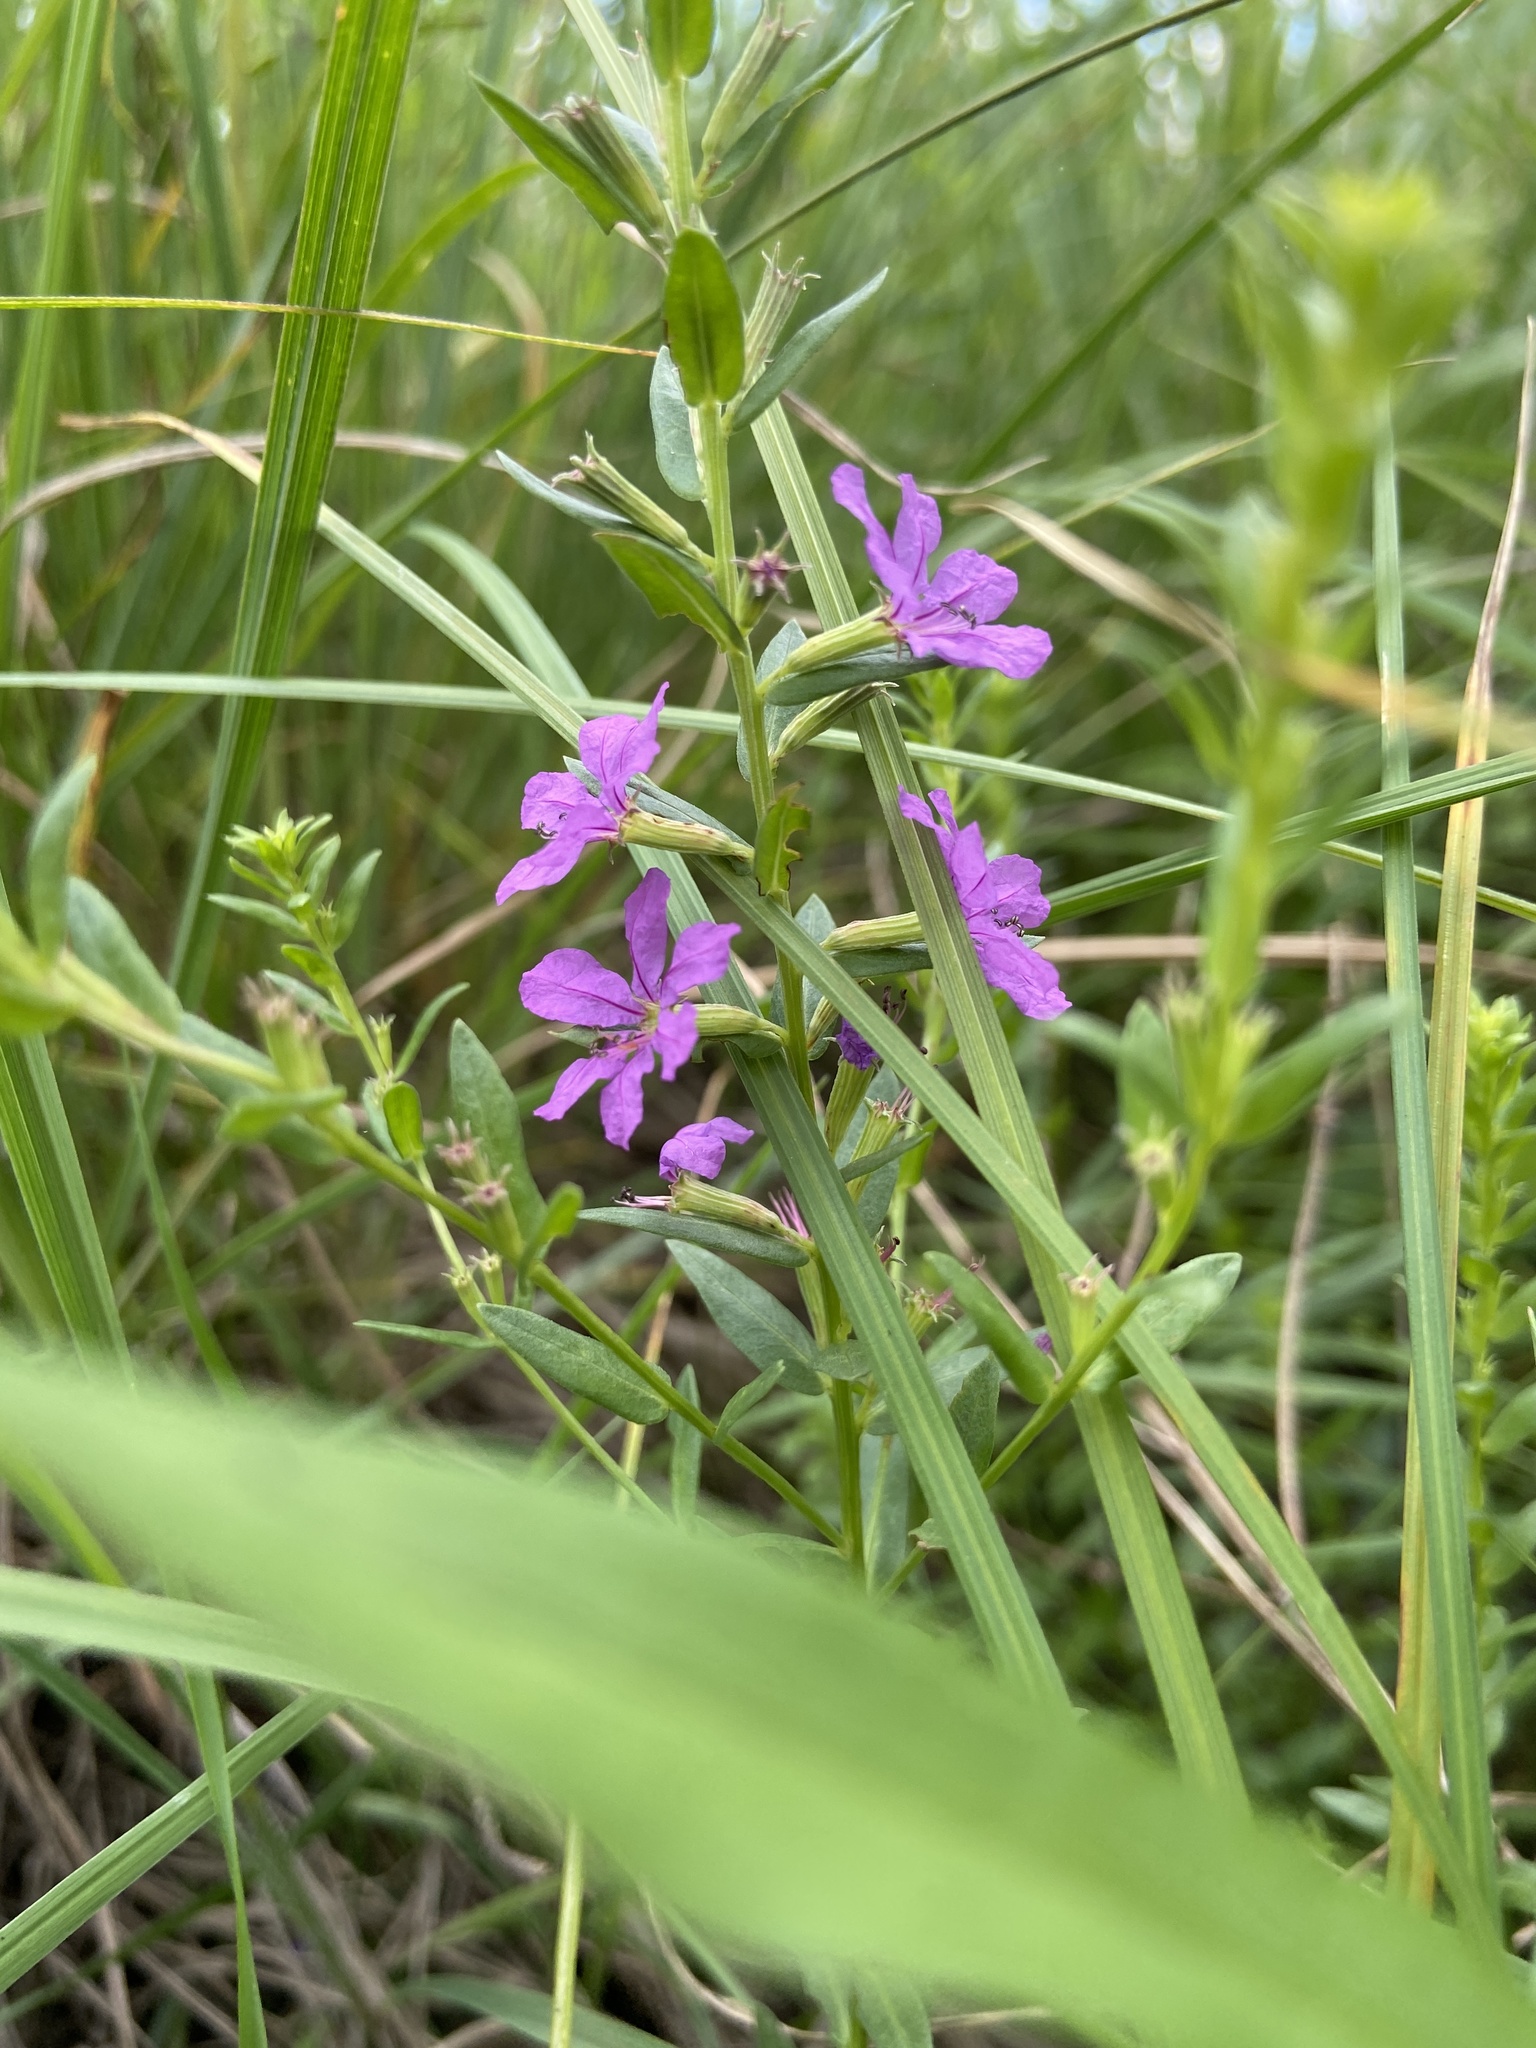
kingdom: Plantae
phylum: Tracheophyta
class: Magnoliopsida
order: Myrtales
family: Lythraceae
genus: Lythrum
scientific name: Lythrum alatum
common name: Winged loosestrife
